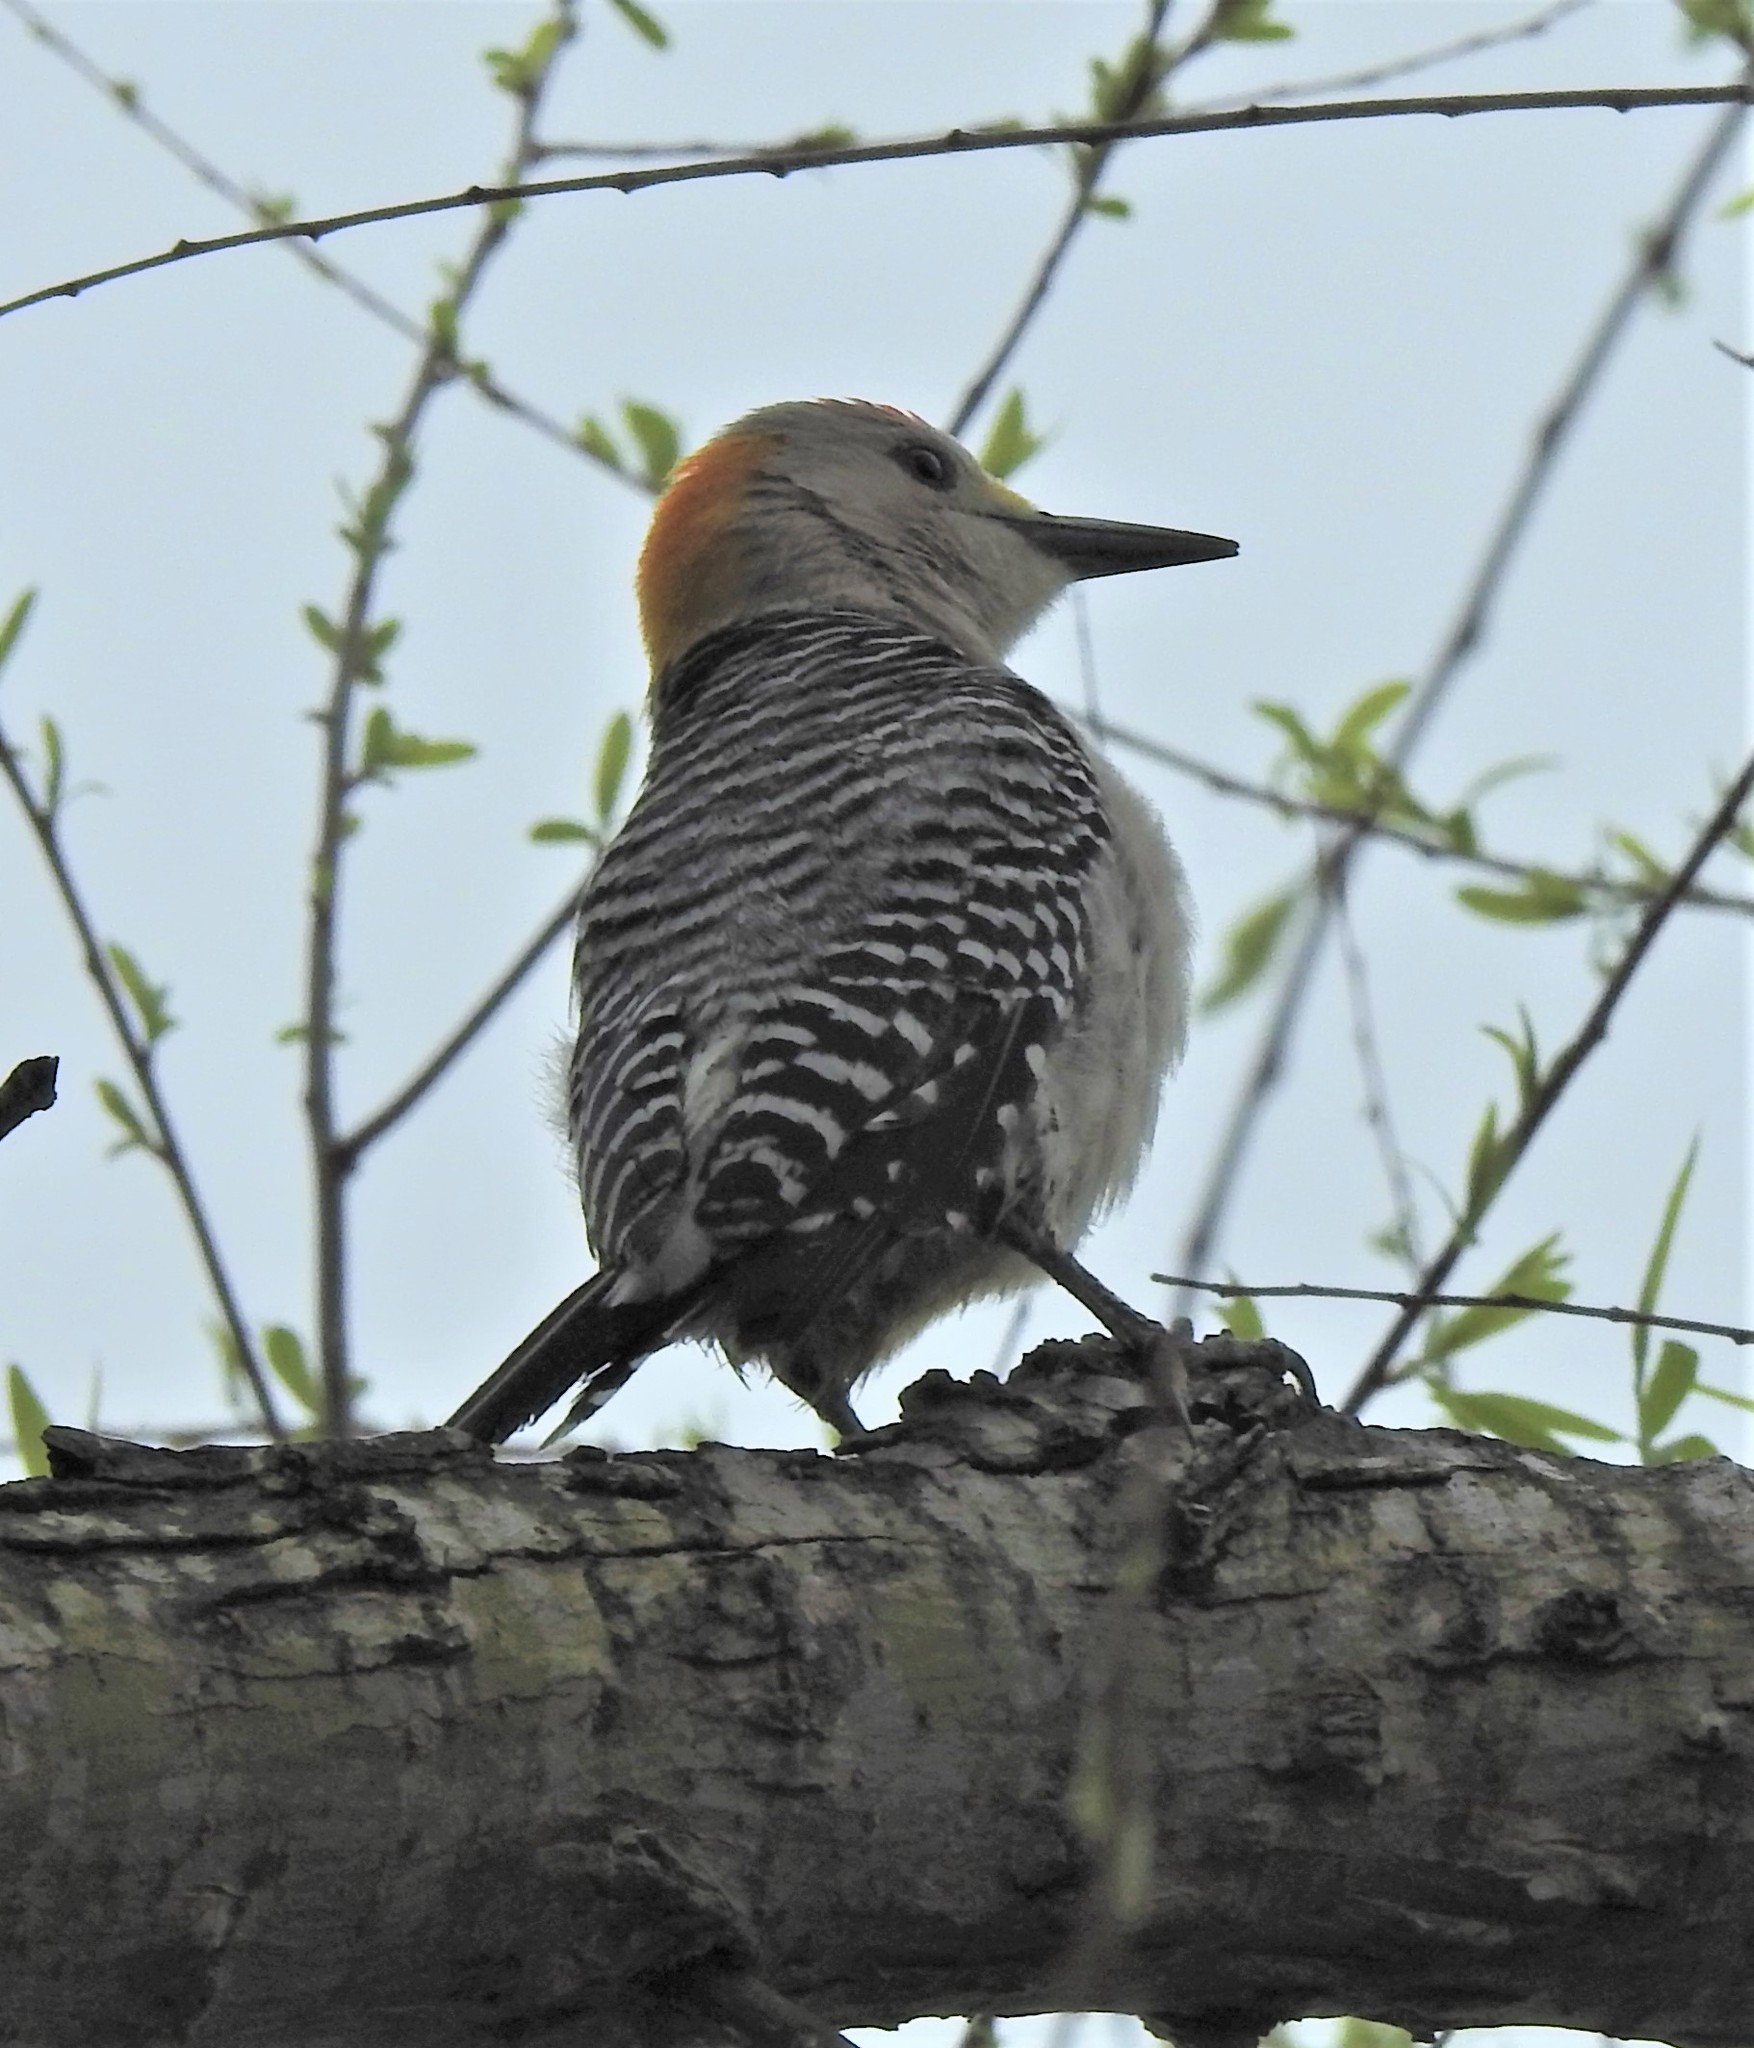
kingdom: Animalia
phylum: Chordata
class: Aves
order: Piciformes
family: Picidae
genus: Melanerpes
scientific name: Melanerpes aurifrons
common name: Golden-fronted woodpecker
